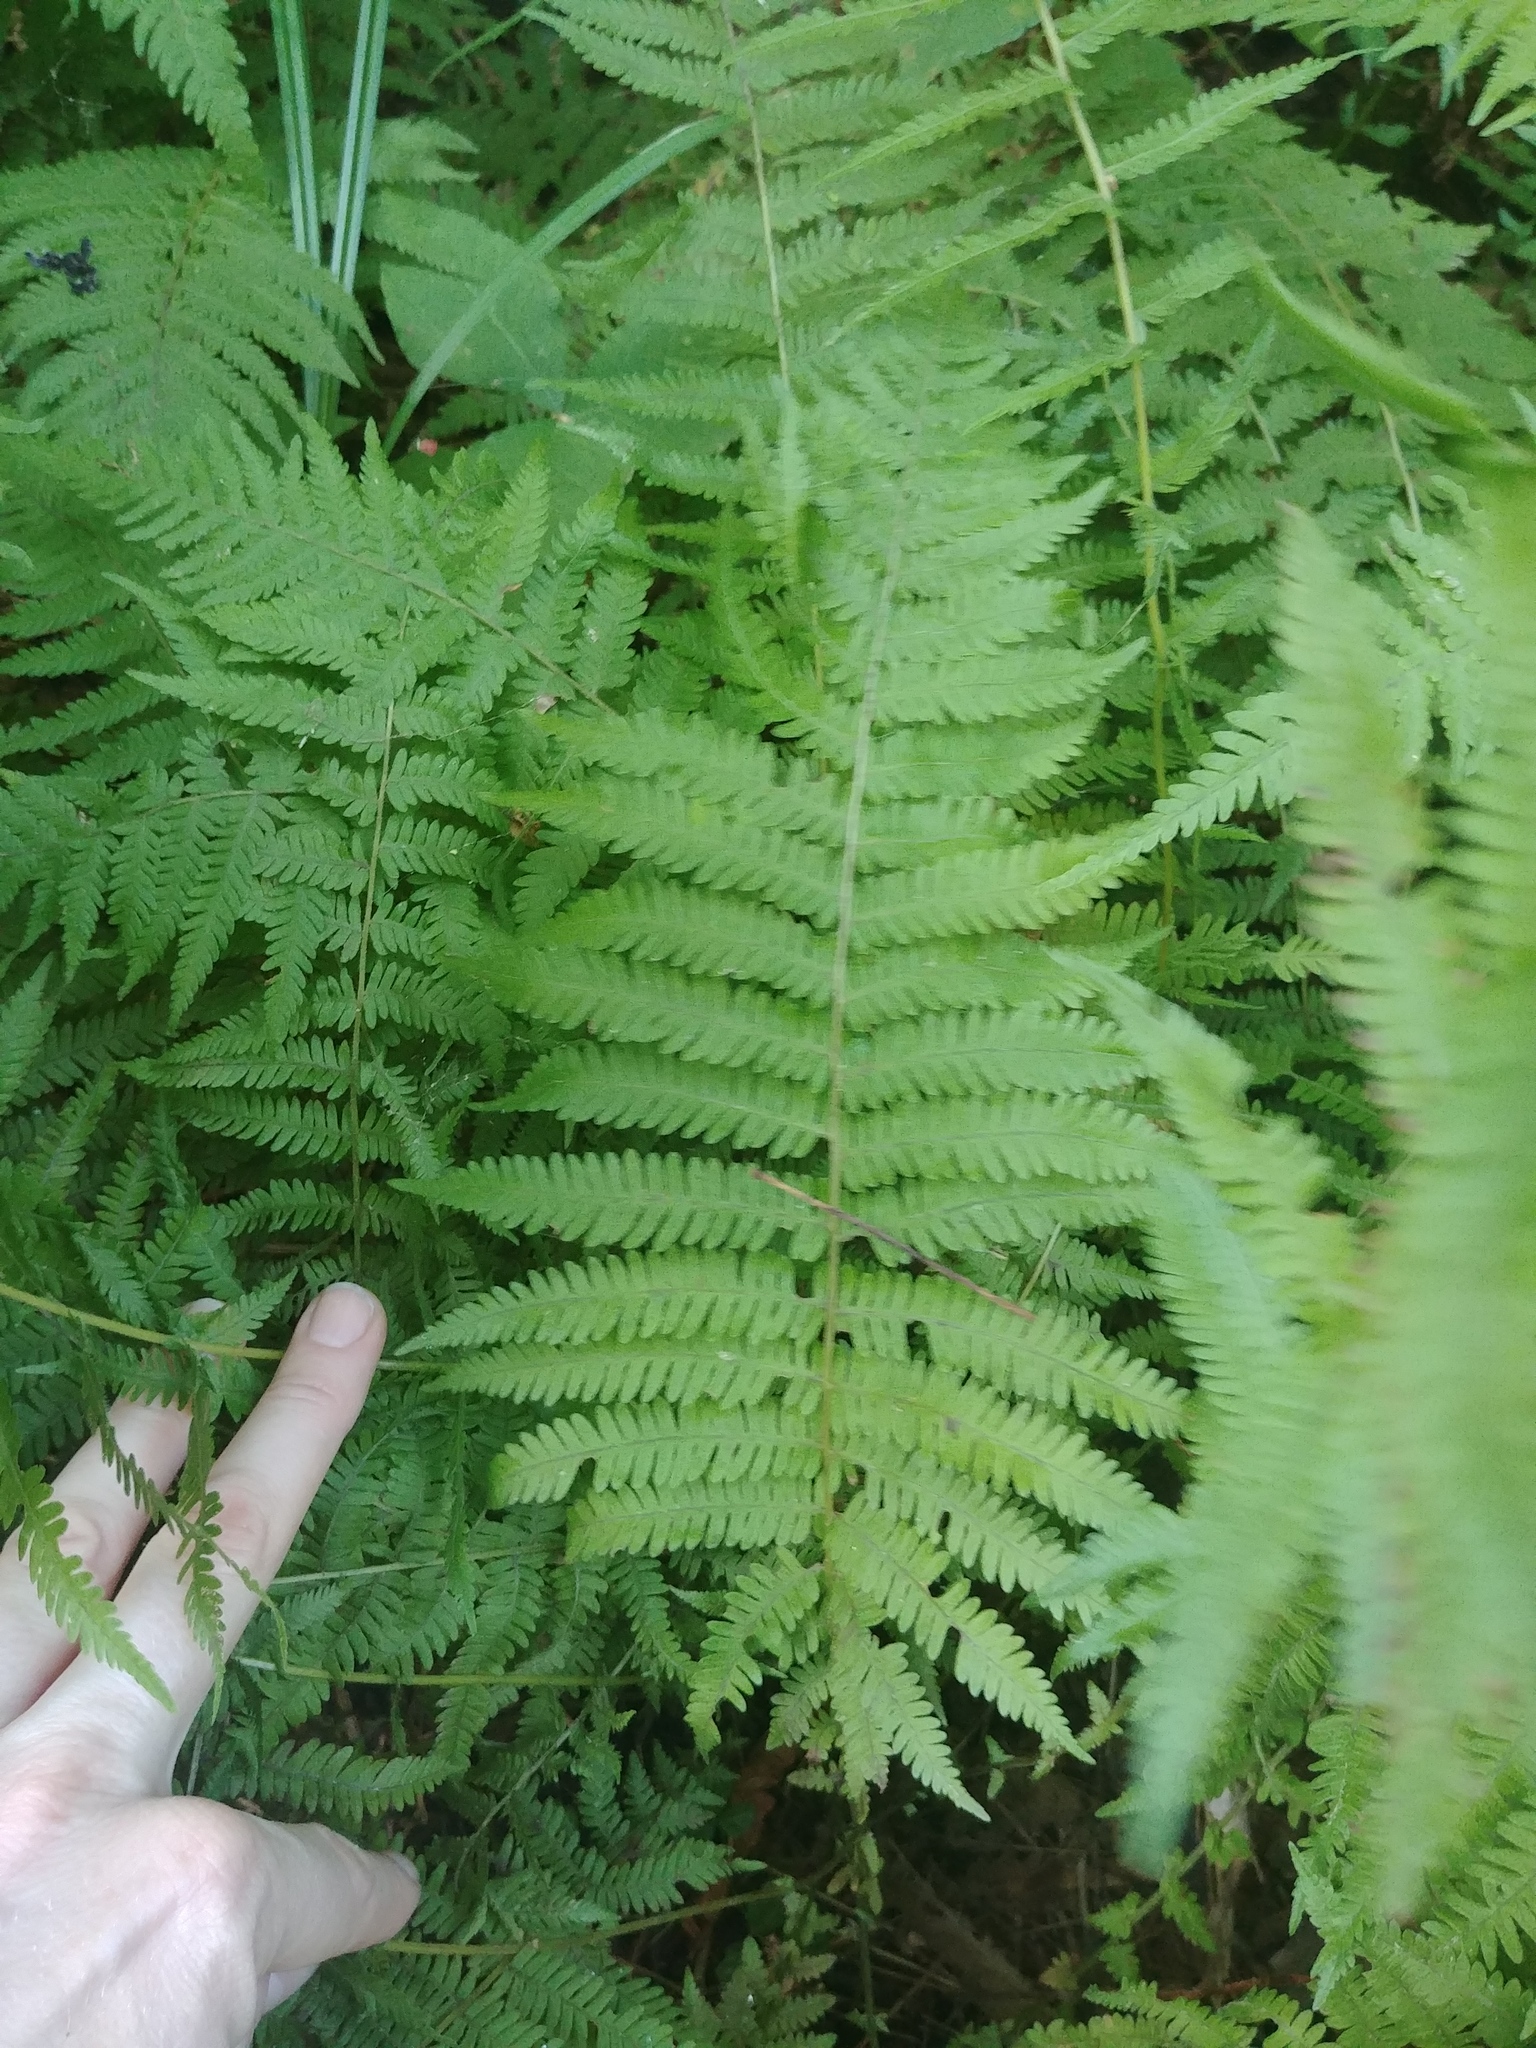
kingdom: Plantae
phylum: Tracheophyta
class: Polypodiopsida
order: Polypodiales
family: Thelypteridaceae
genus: Amauropelta
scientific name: Amauropelta noveboracensis
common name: New york fern
